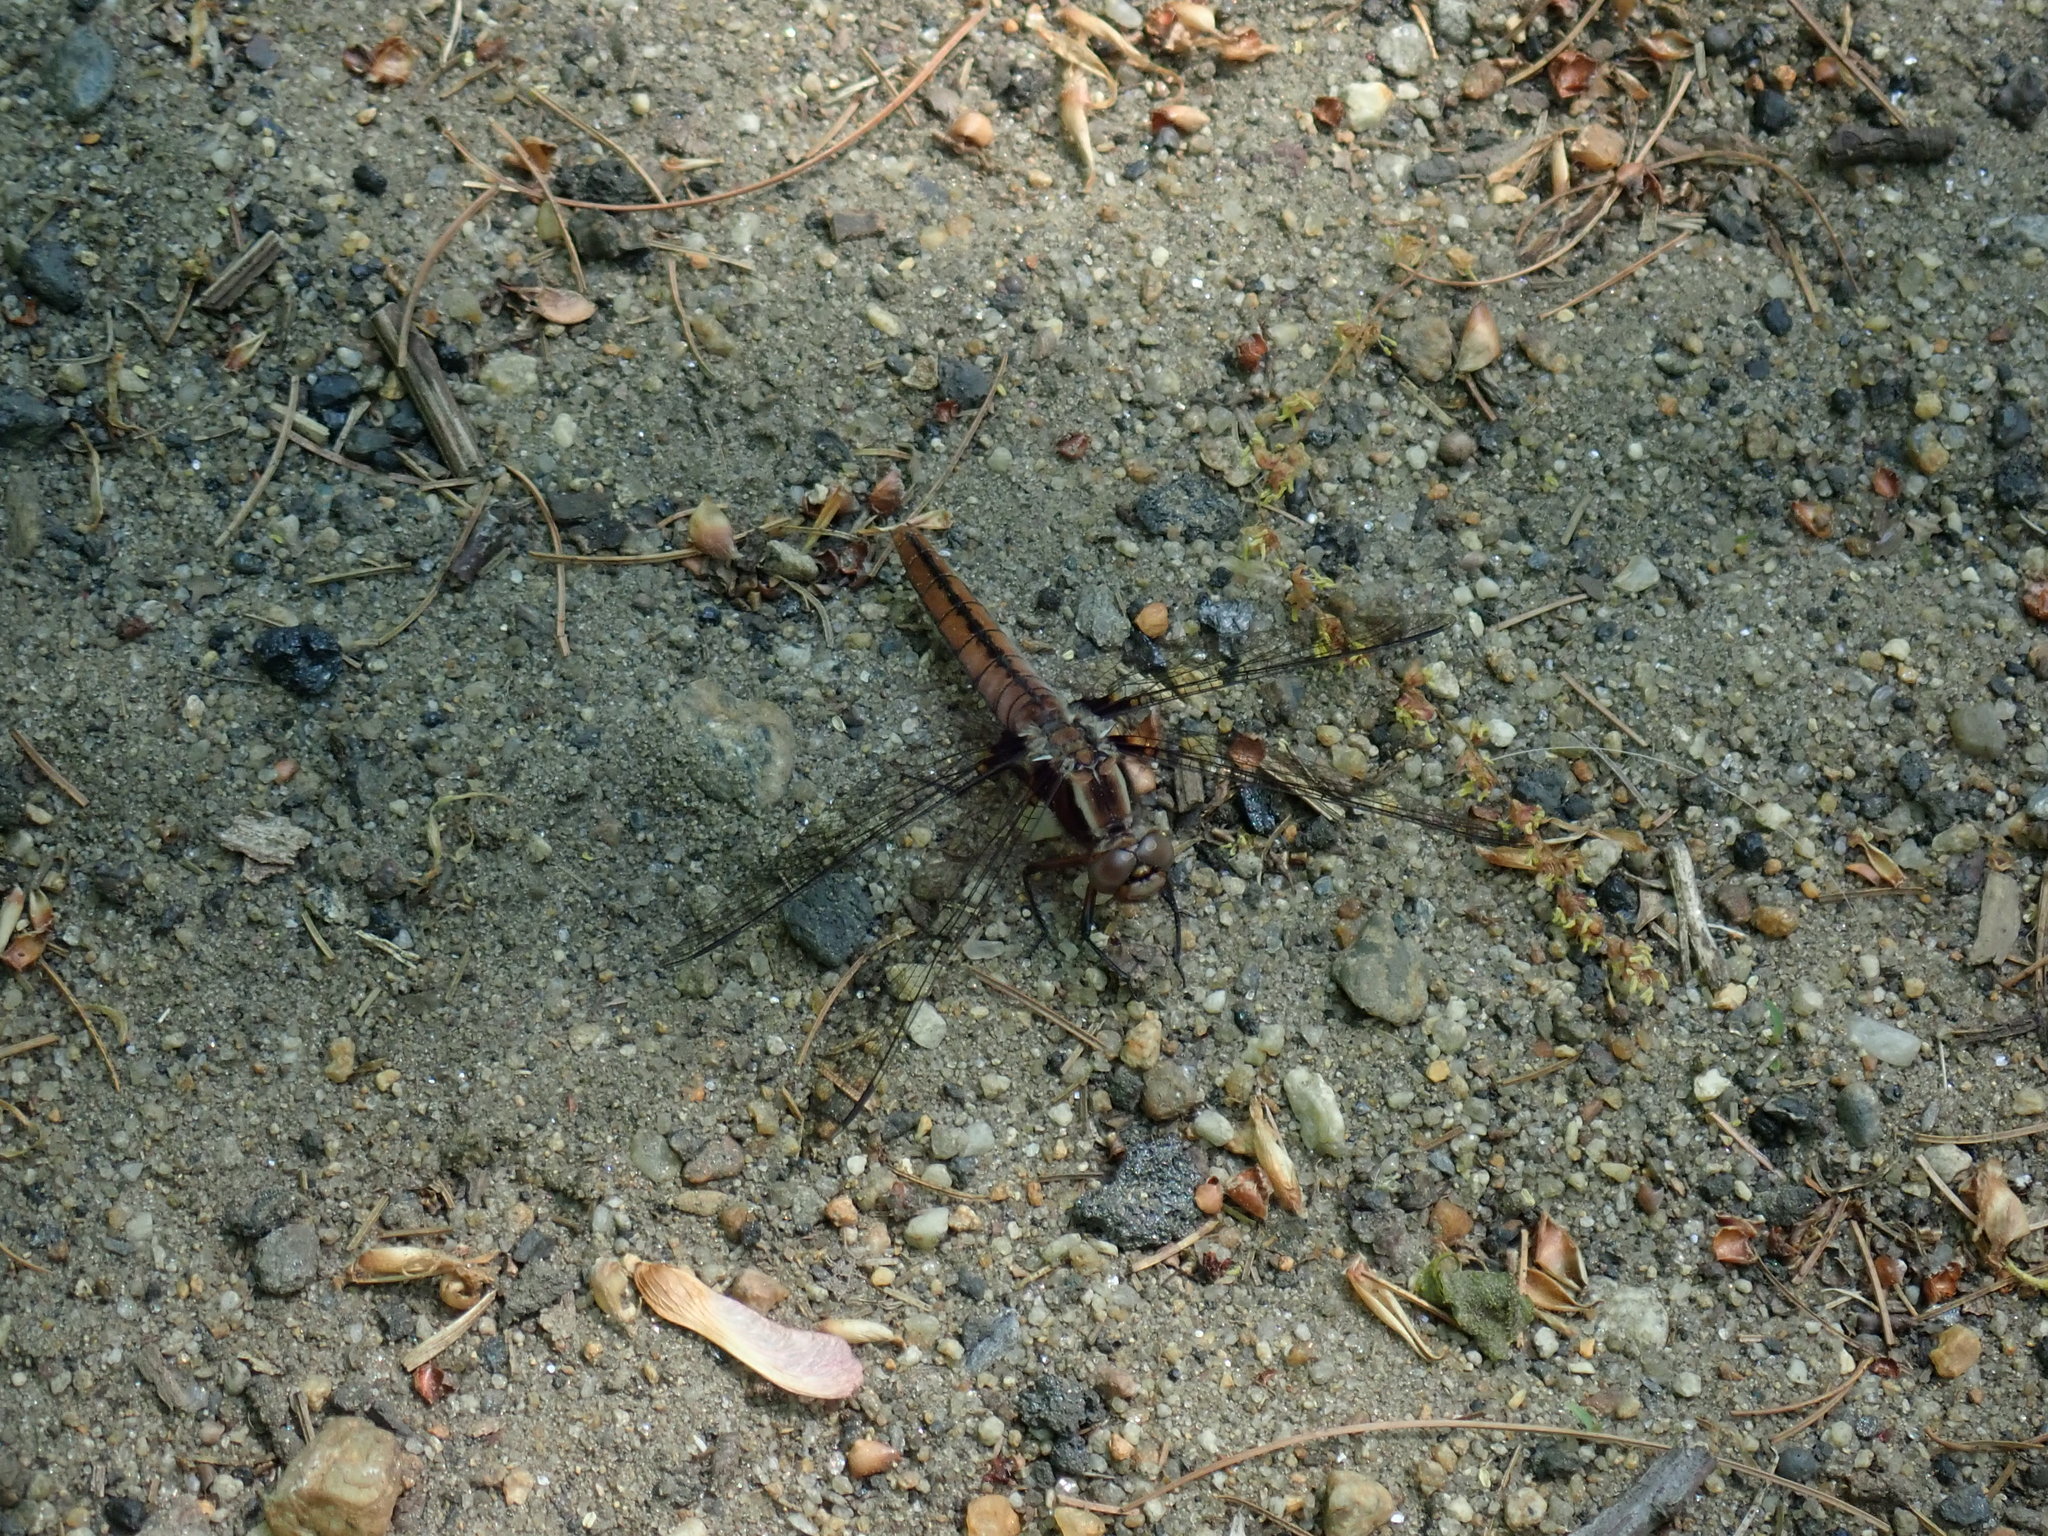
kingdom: Animalia
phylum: Arthropoda
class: Insecta
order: Odonata
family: Libellulidae
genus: Ladona
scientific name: Ladona julia
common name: Chalk-fronted corporal
